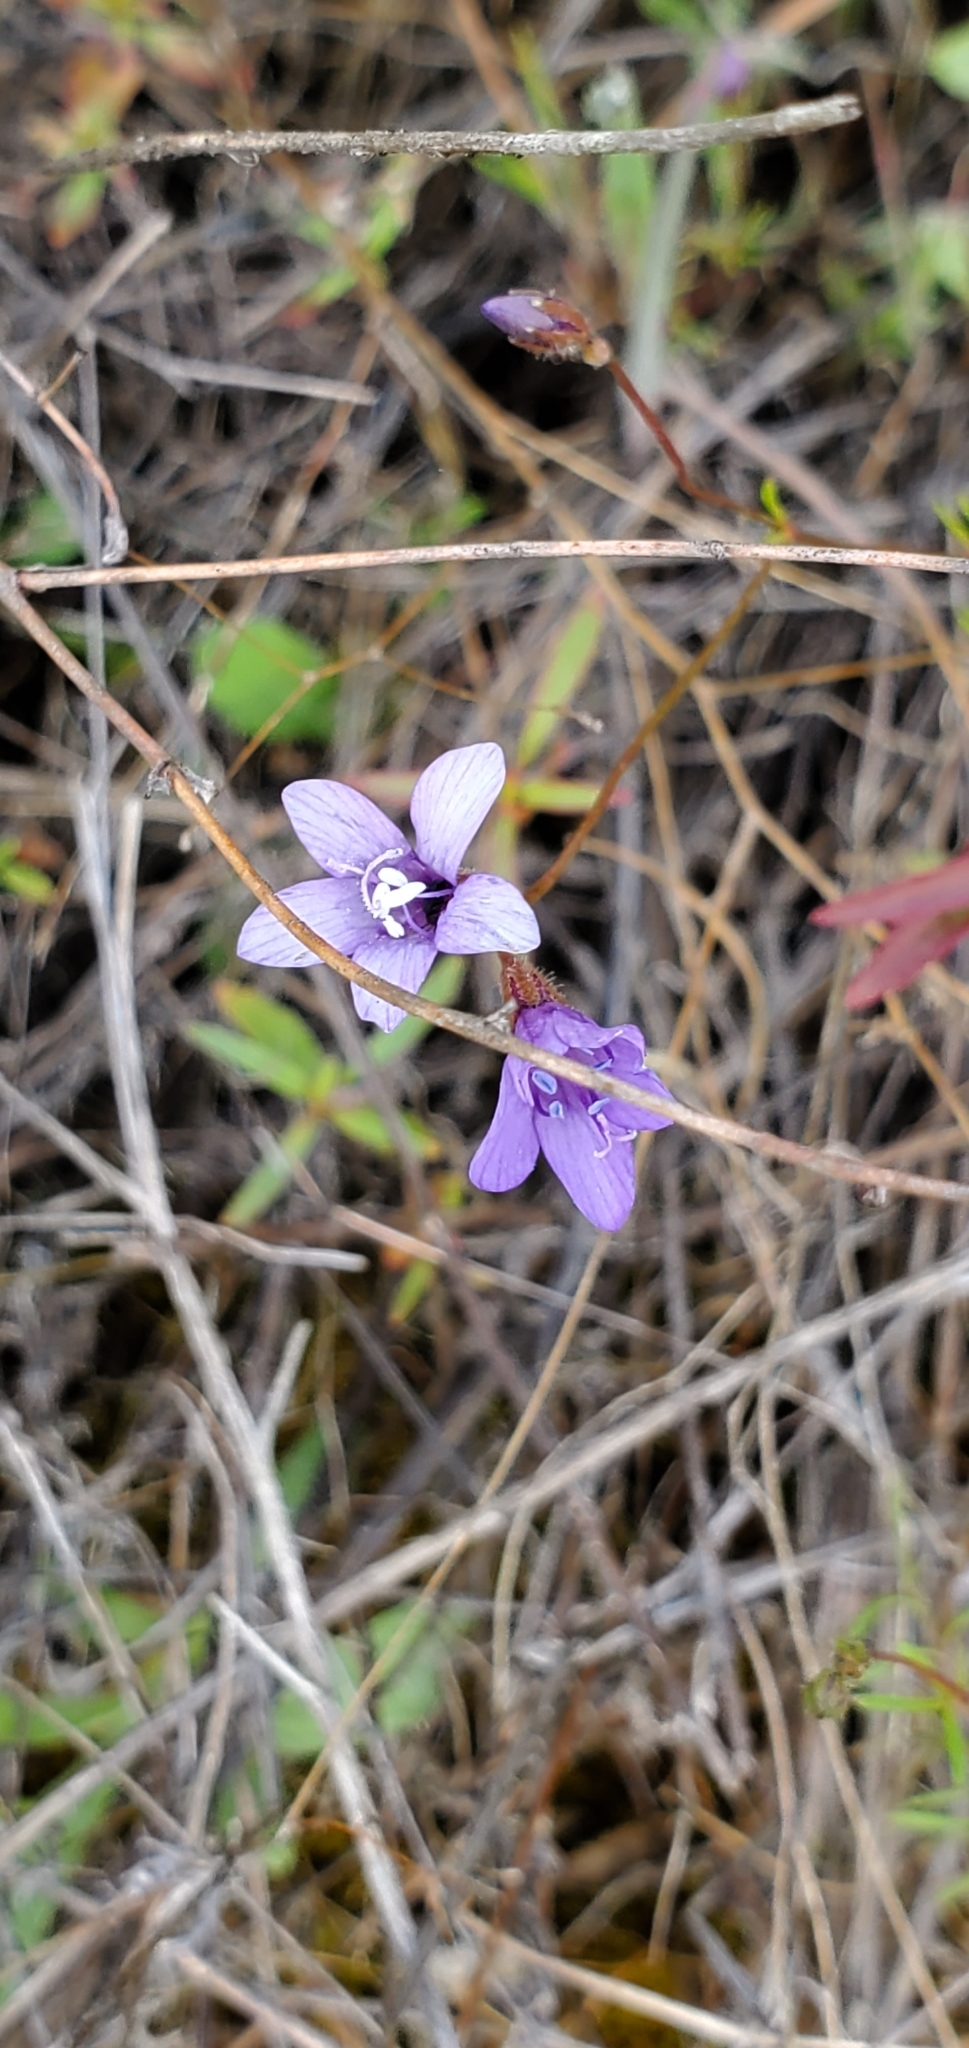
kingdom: Plantae
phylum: Tracheophyta
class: Magnoliopsida
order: Ericales
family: Polemoniaceae
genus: Gilia
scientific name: Gilia achilleifolia
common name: California gily-flower
